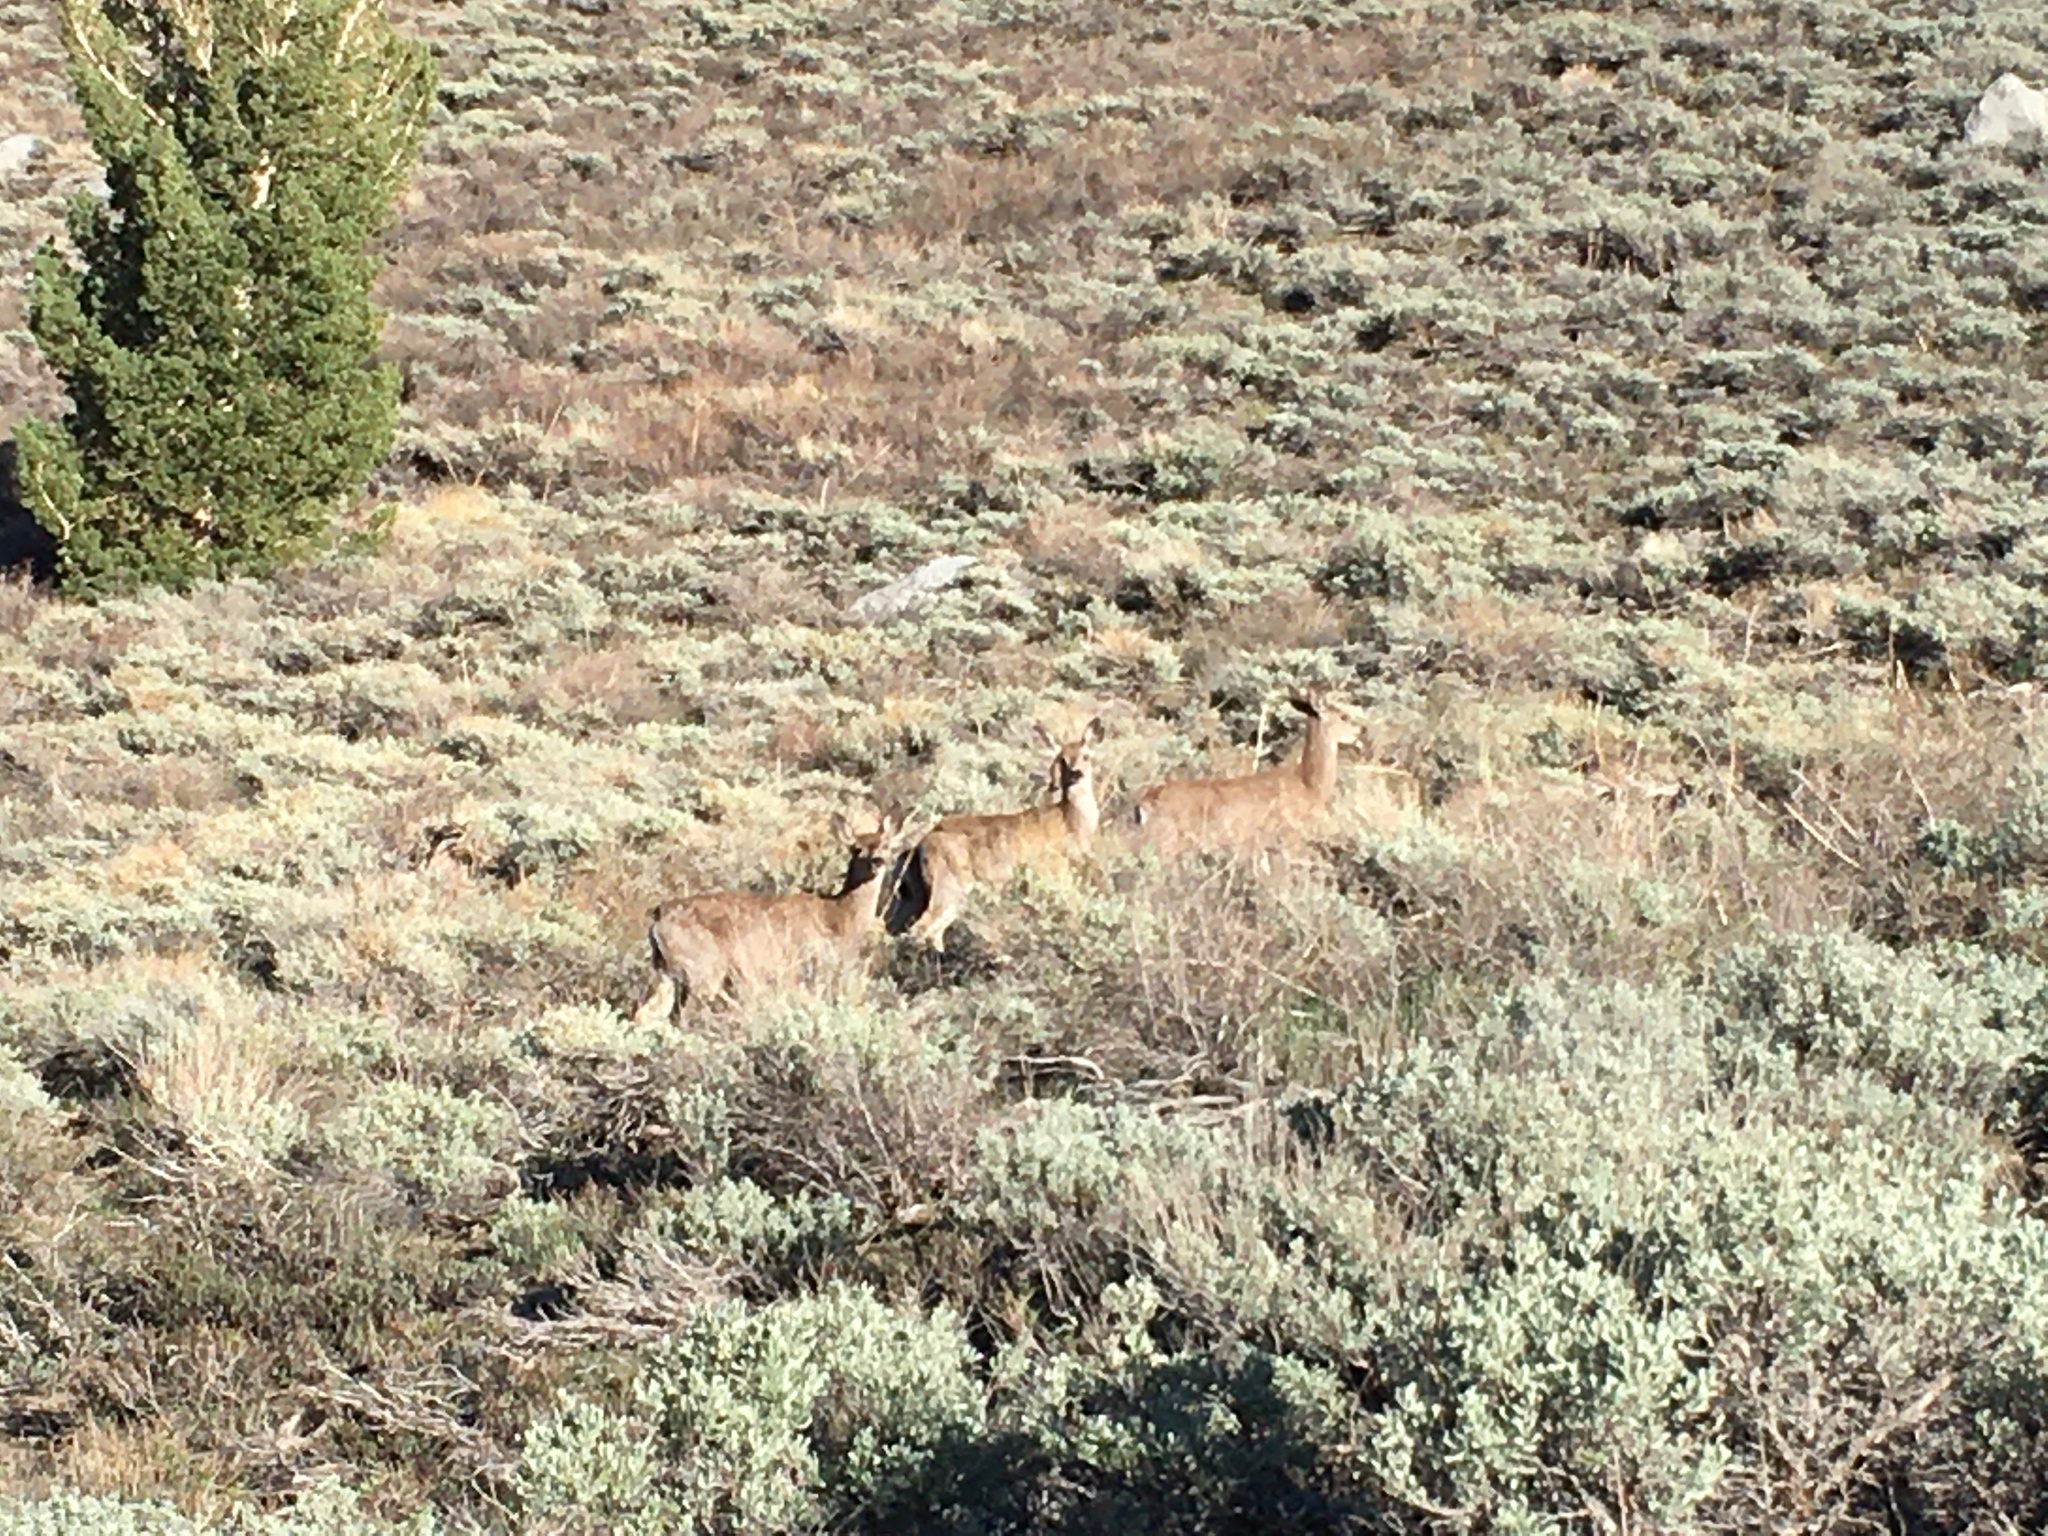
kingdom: Animalia
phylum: Chordata
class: Mammalia
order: Artiodactyla
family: Cervidae
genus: Odocoileus
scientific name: Odocoileus hemionus
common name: Mule deer
